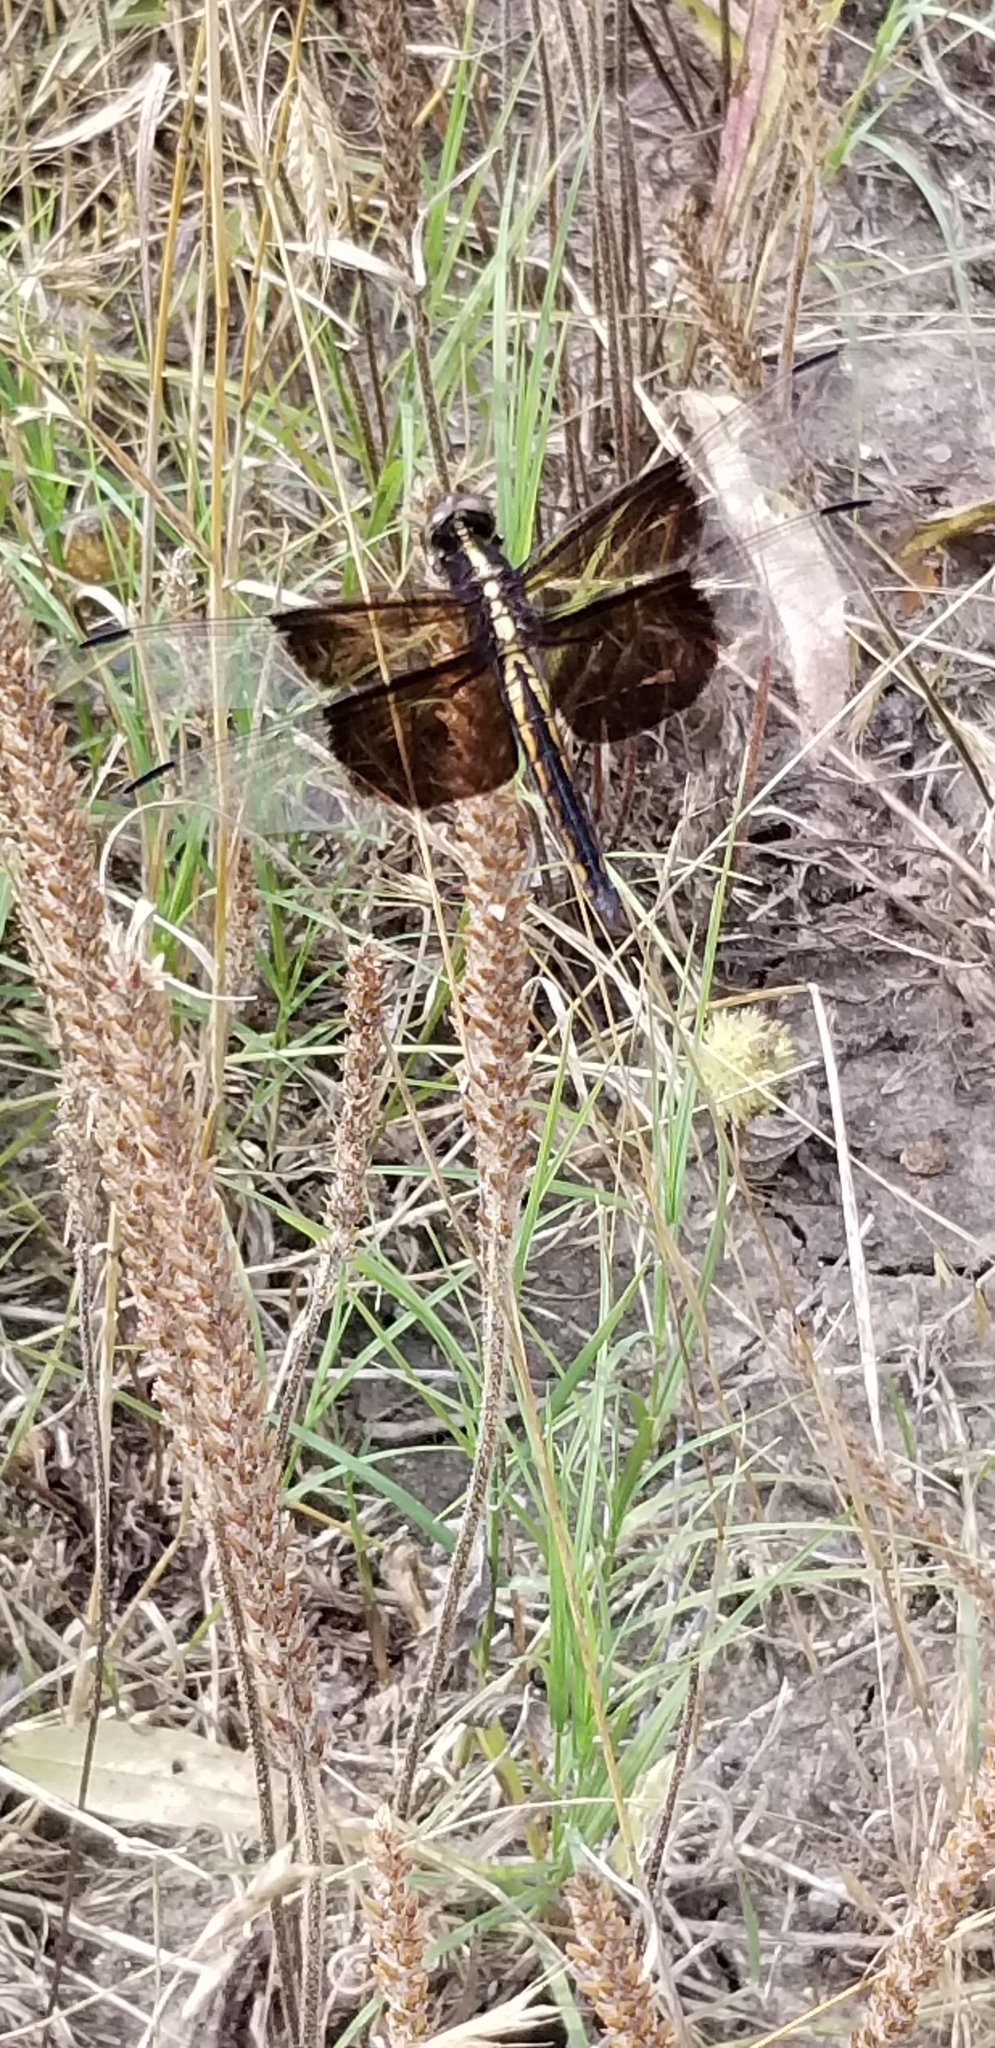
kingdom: Animalia
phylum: Arthropoda
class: Insecta
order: Odonata
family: Libellulidae
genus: Libellula
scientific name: Libellula luctuosa
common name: Widow skimmer
